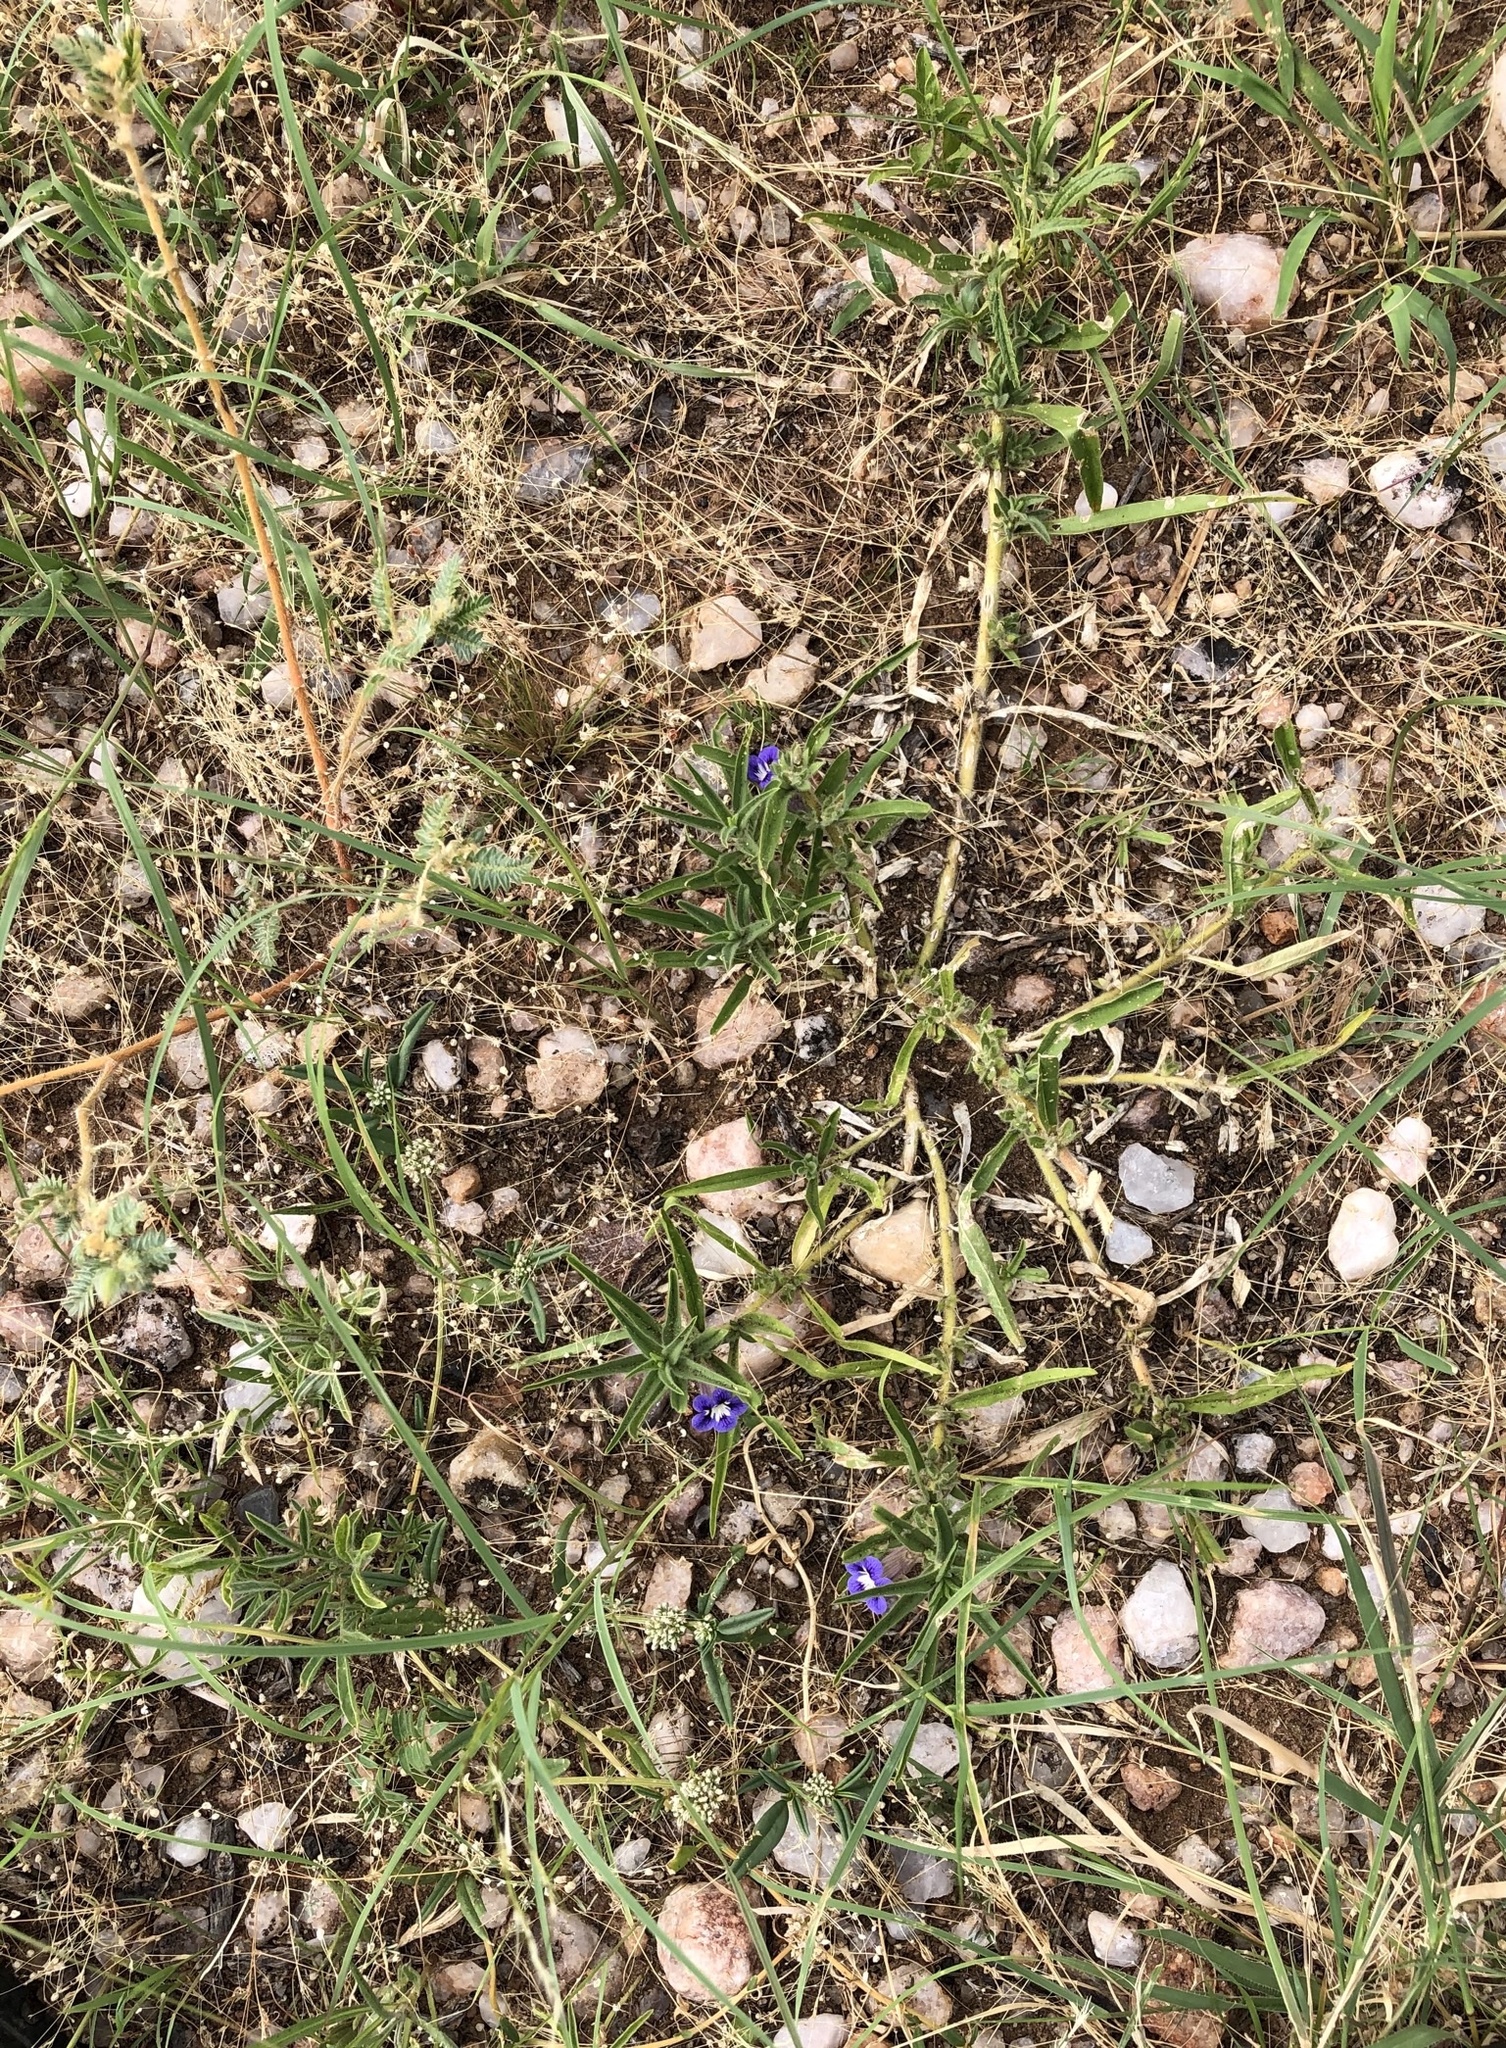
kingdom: Plantae
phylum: Tracheophyta
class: Magnoliopsida
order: Lamiales
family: Scrophulariaceae
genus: Aptosimum
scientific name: Aptosimum arenarium
